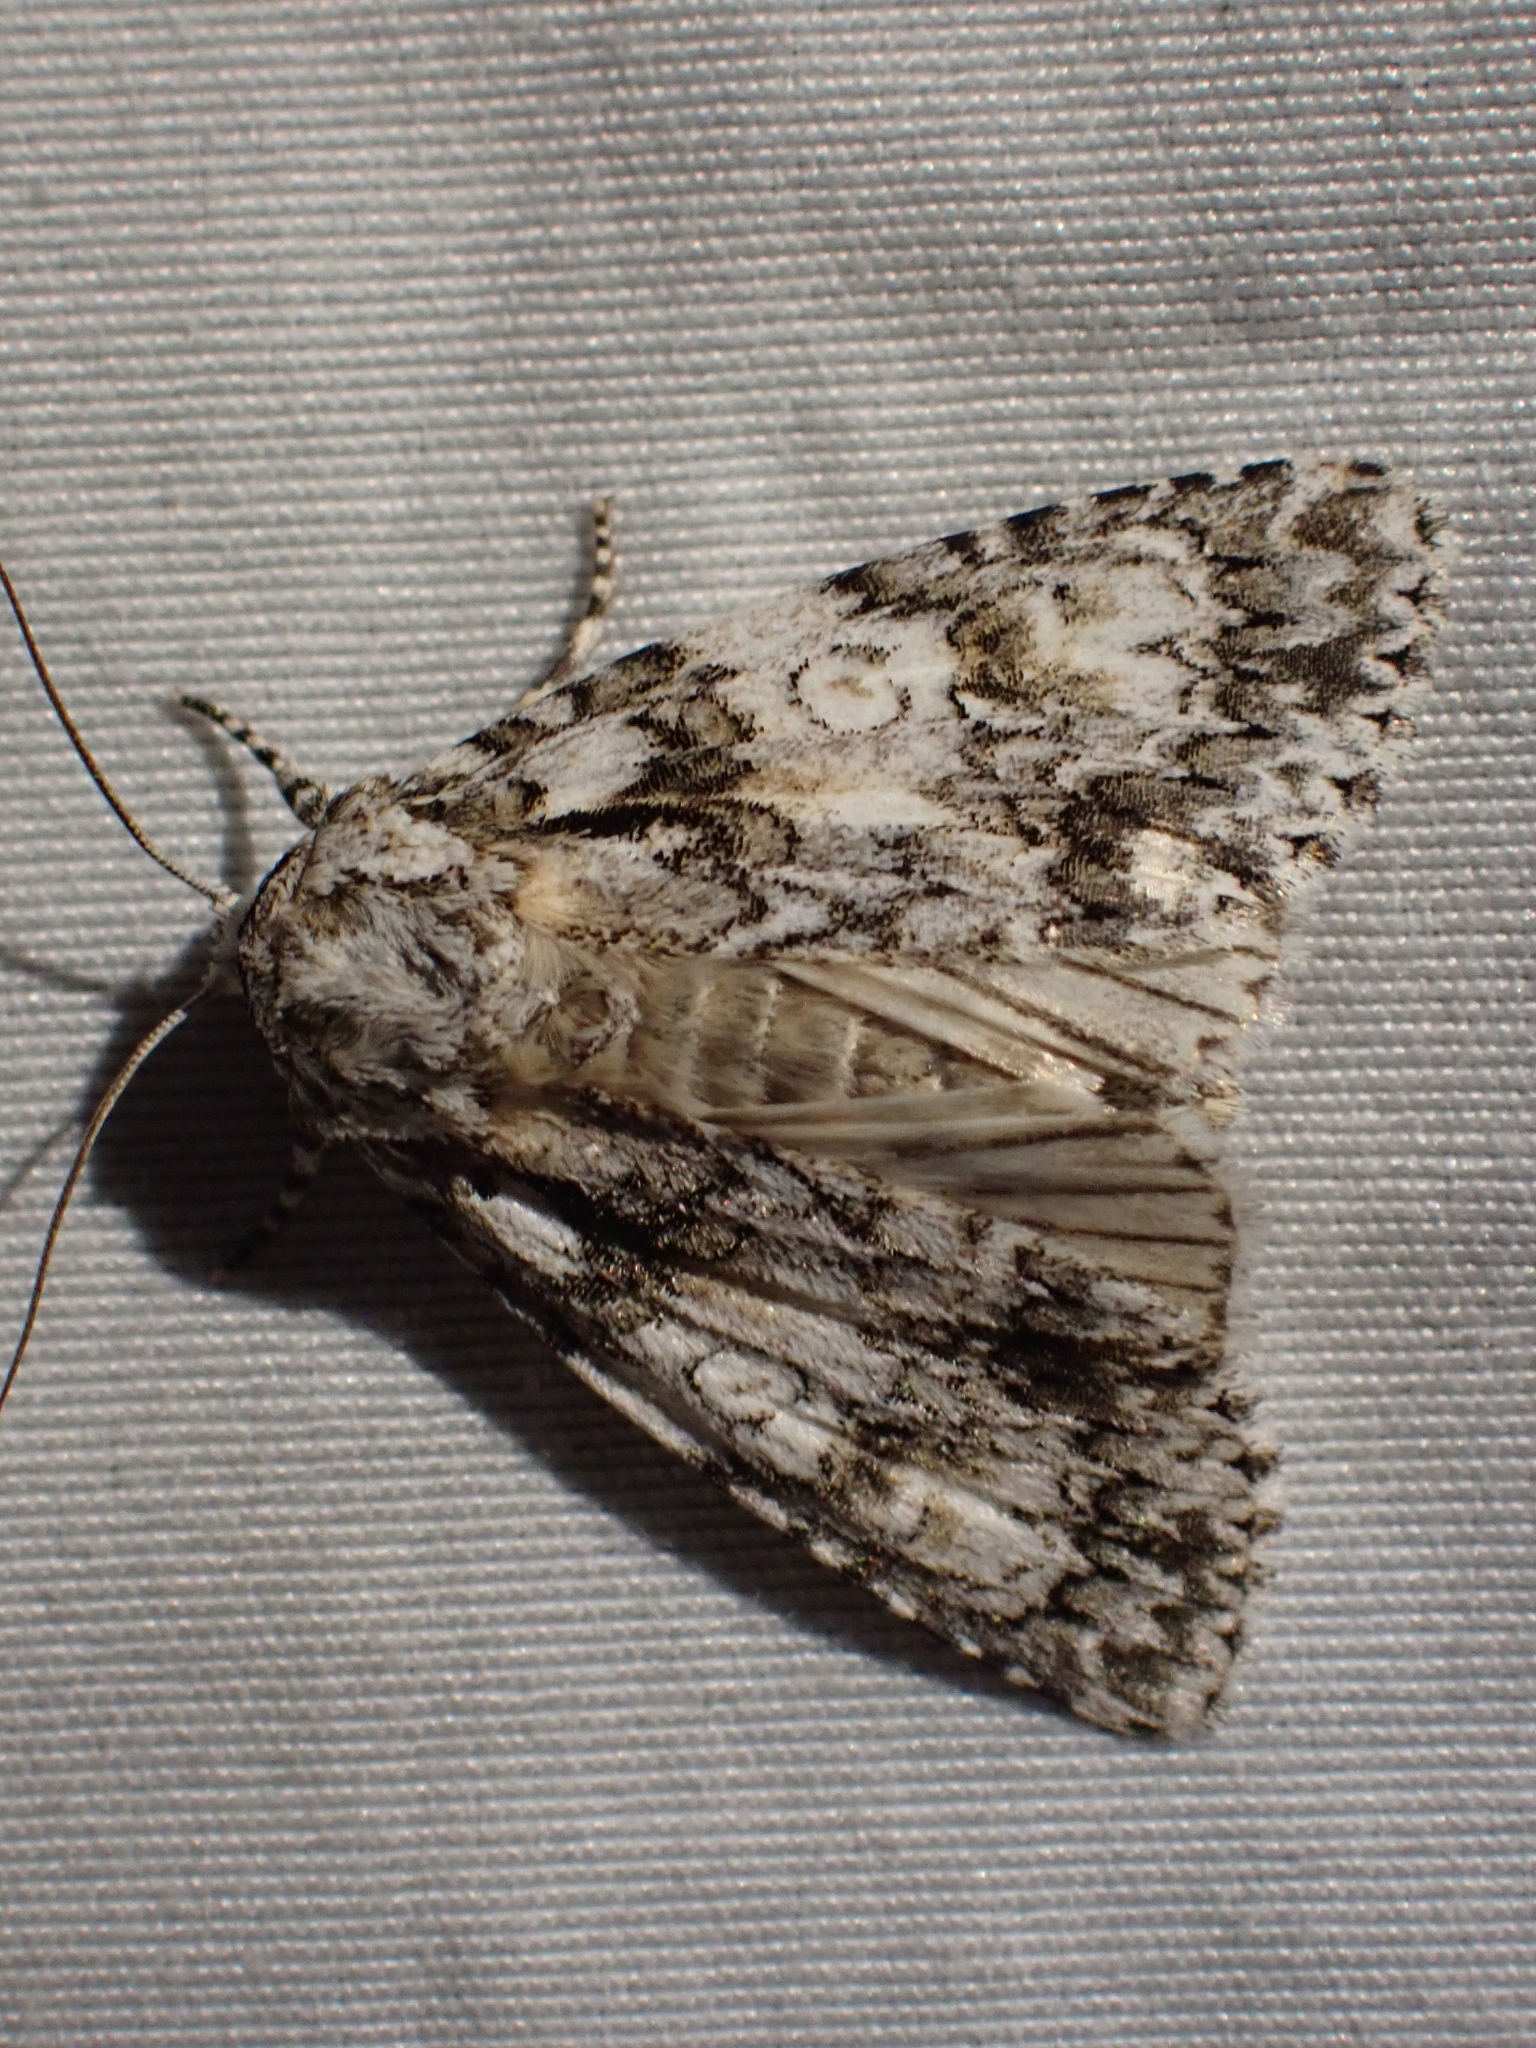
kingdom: Animalia
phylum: Arthropoda
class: Insecta
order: Lepidoptera
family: Noctuidae
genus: Acronicta
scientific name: Acronicta marmorata
